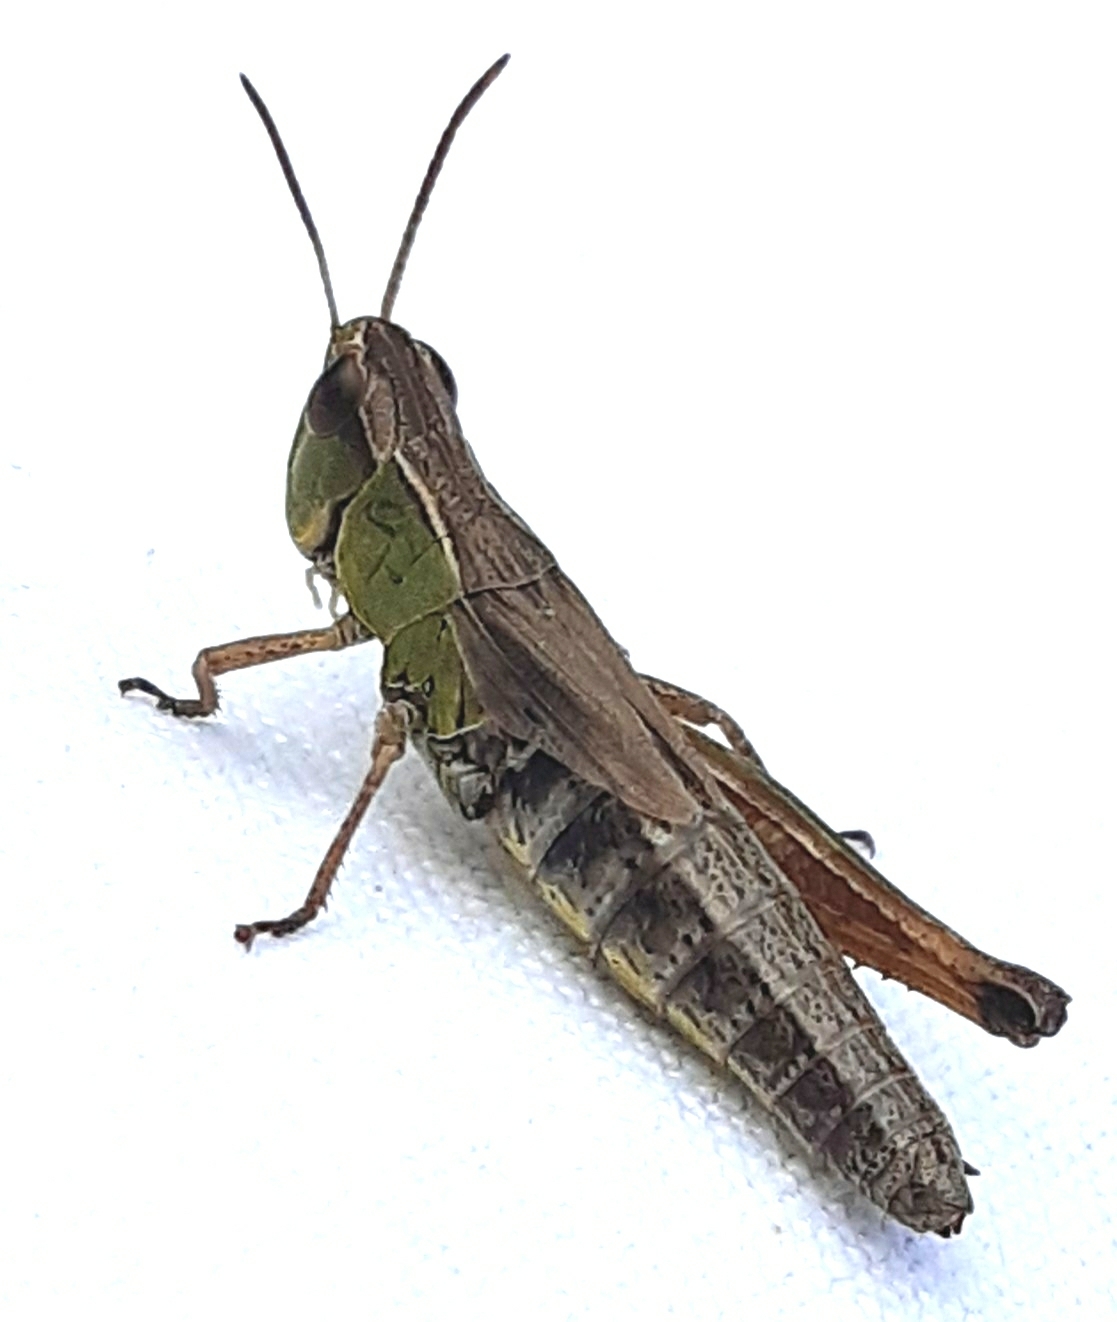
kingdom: Animalia
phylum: Arthropoda
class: Insecta
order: Orthoptera
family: Acrididae
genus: Pseudochorthippus
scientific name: Pseudochorthippus parallelus
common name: Meadow grasshopper
